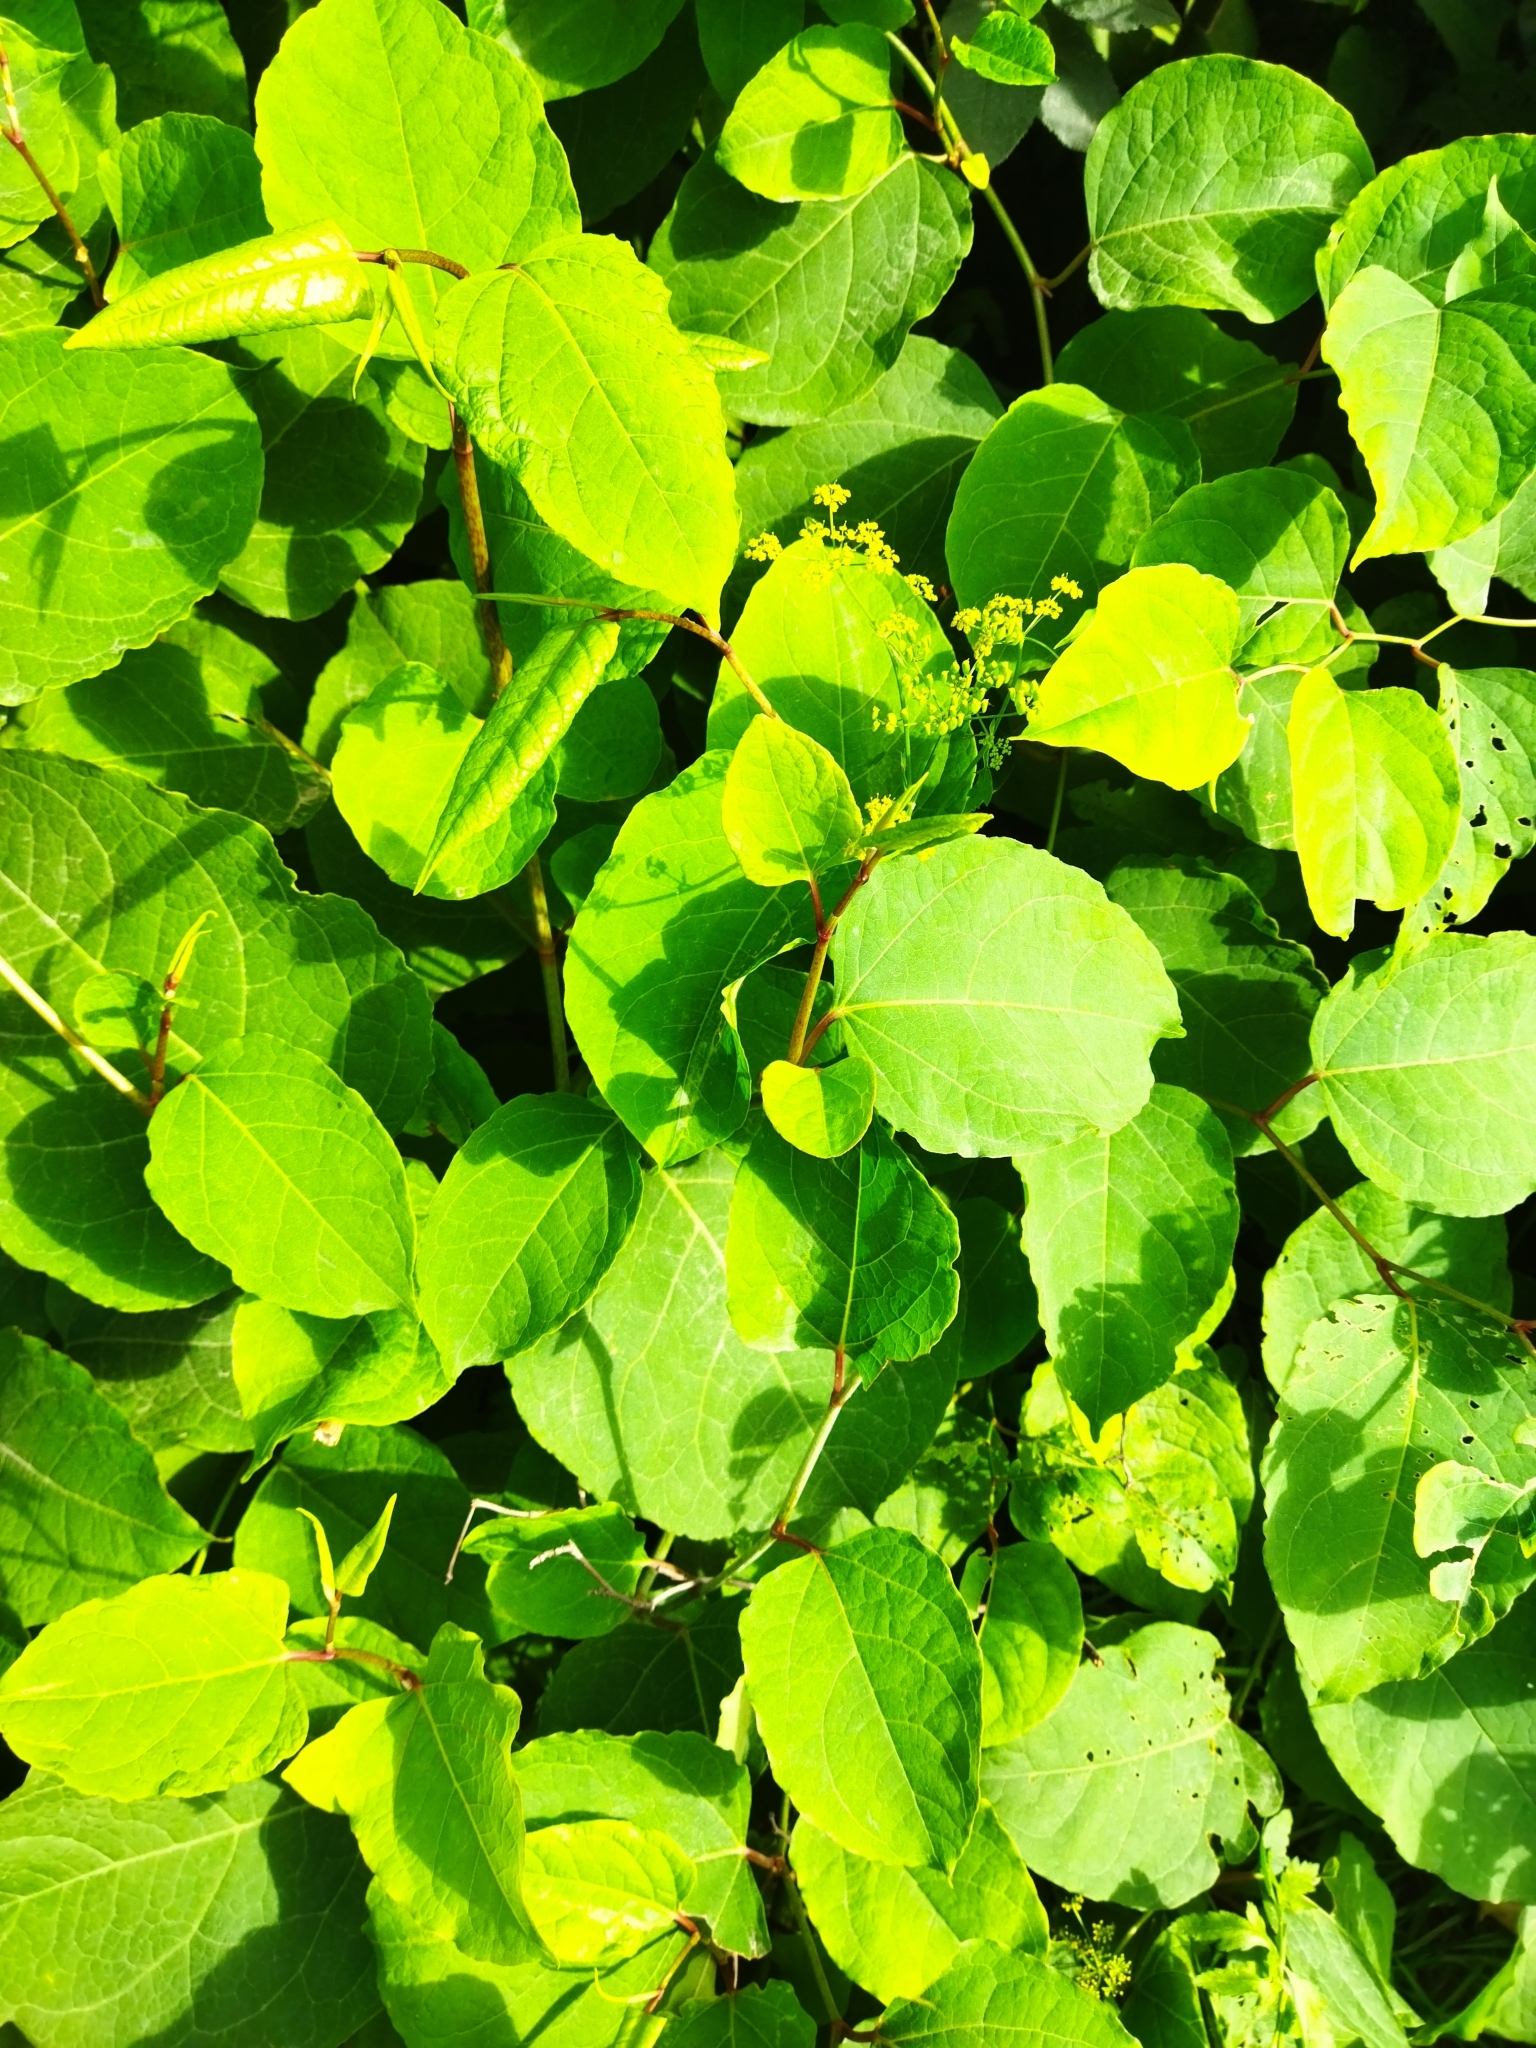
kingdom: Plantae
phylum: Tracheophyta
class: Magnoliopsida
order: Caryophyllales
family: Polygonaceae
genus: Reynoutria
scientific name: Reynoutria bohemica
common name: Bohemian knotweed
